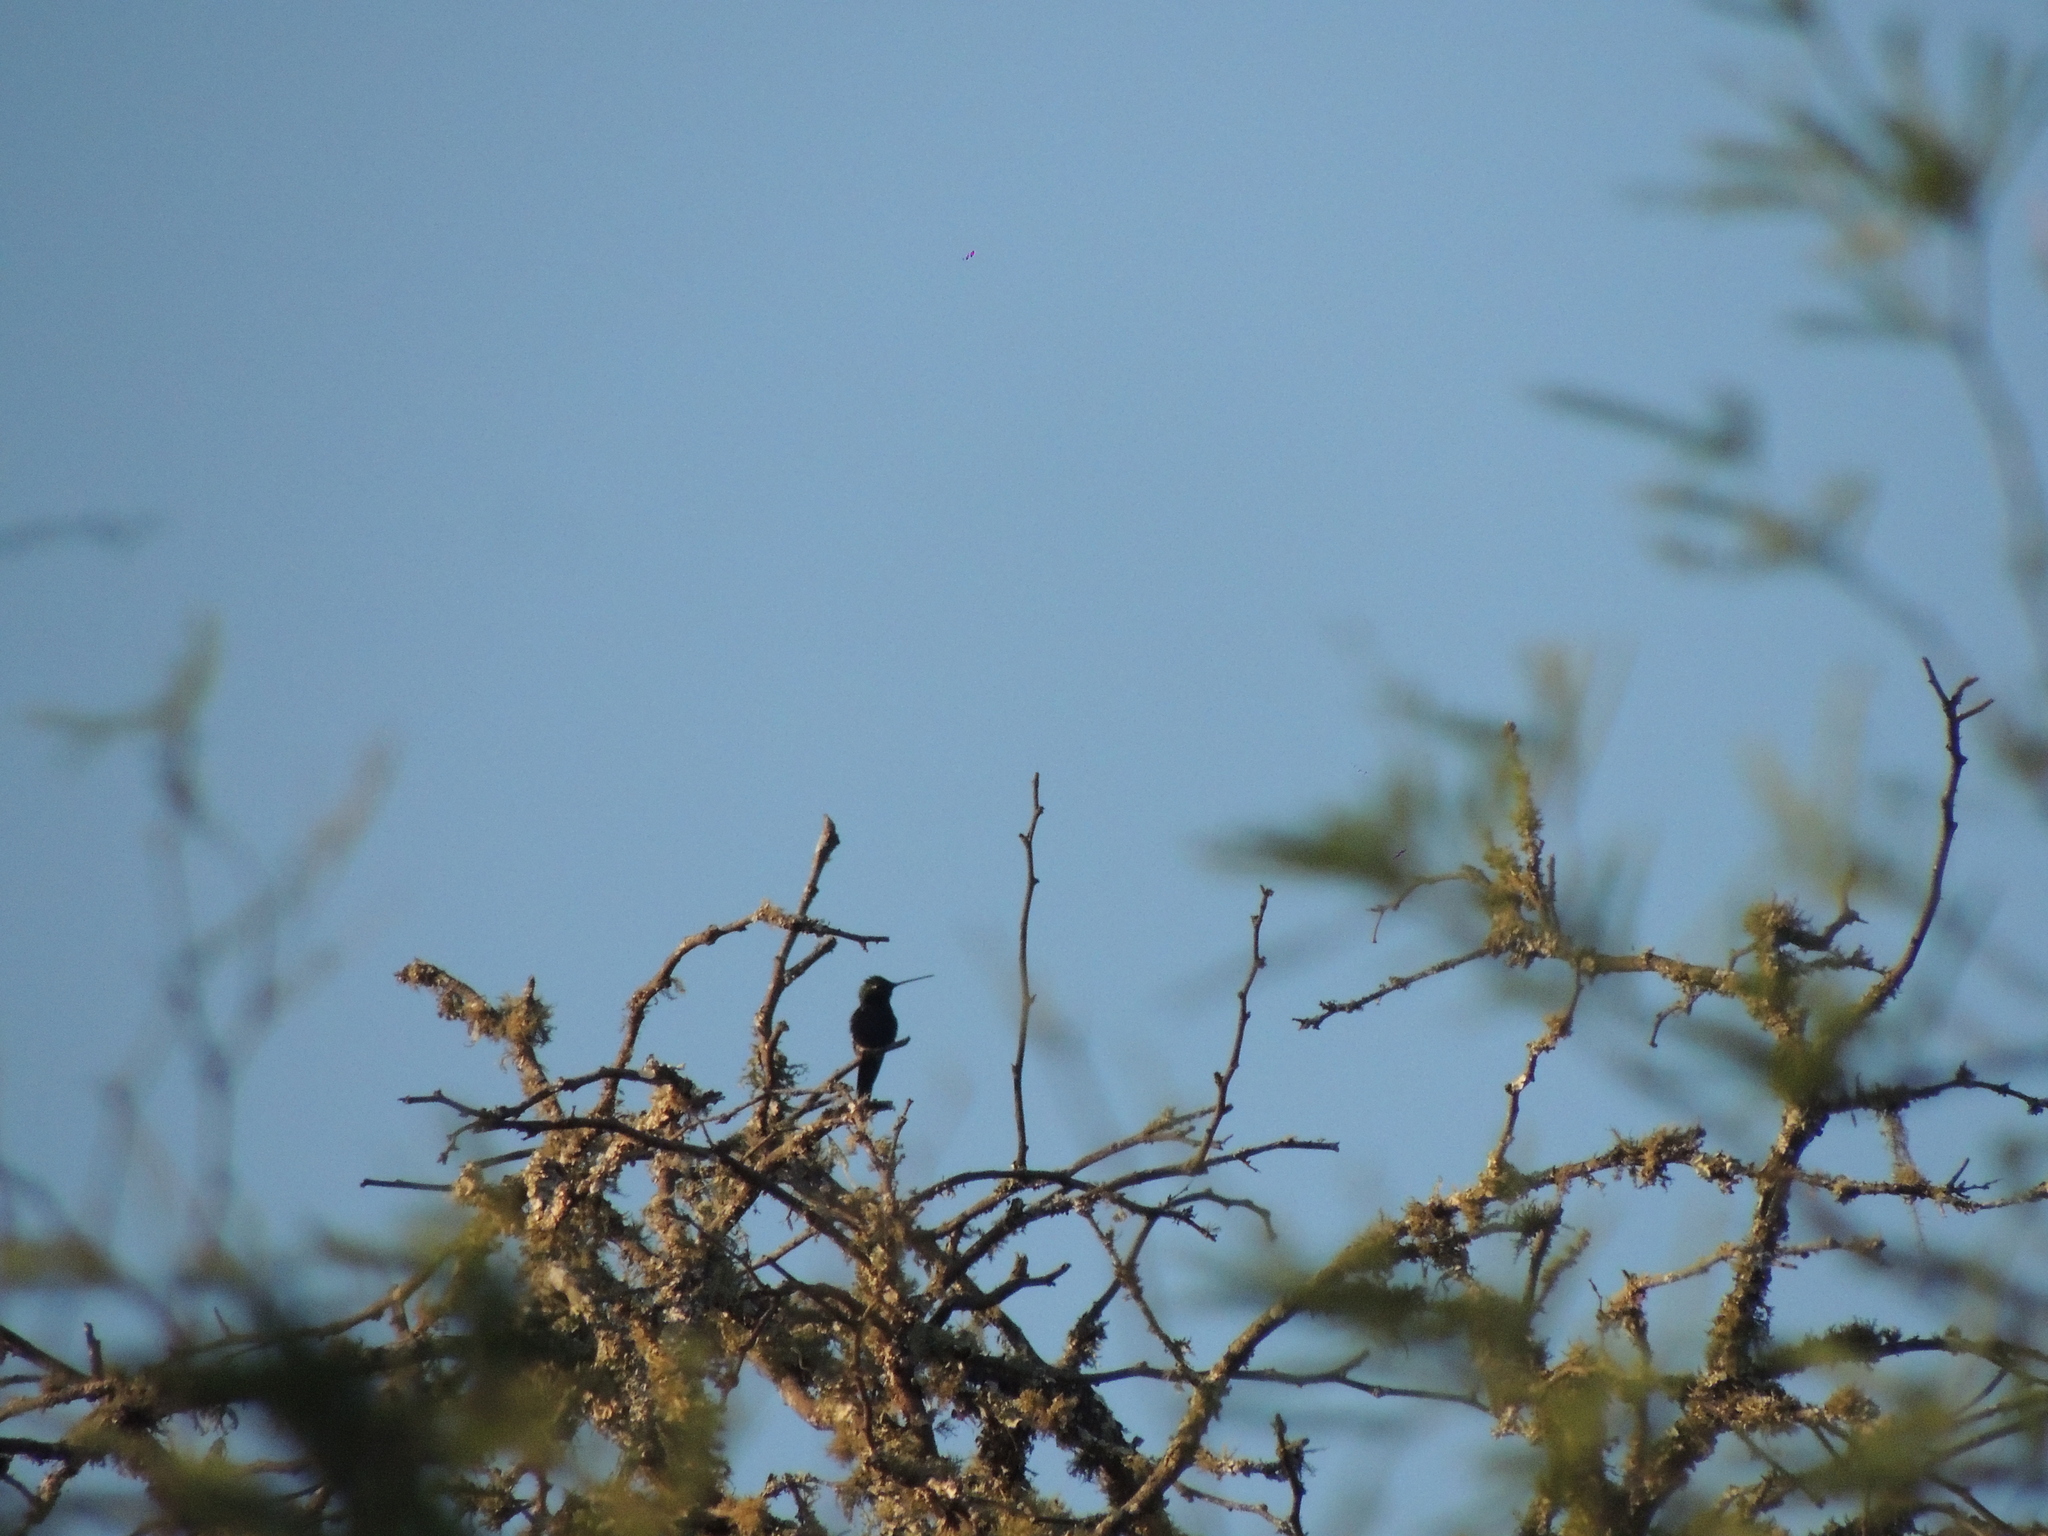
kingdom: Animalia
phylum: Chordata
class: Aves
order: Apodiformes
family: Trochilidae
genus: Heliomaster
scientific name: Heliomaster furcifer
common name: Blue-tufted starthroat
